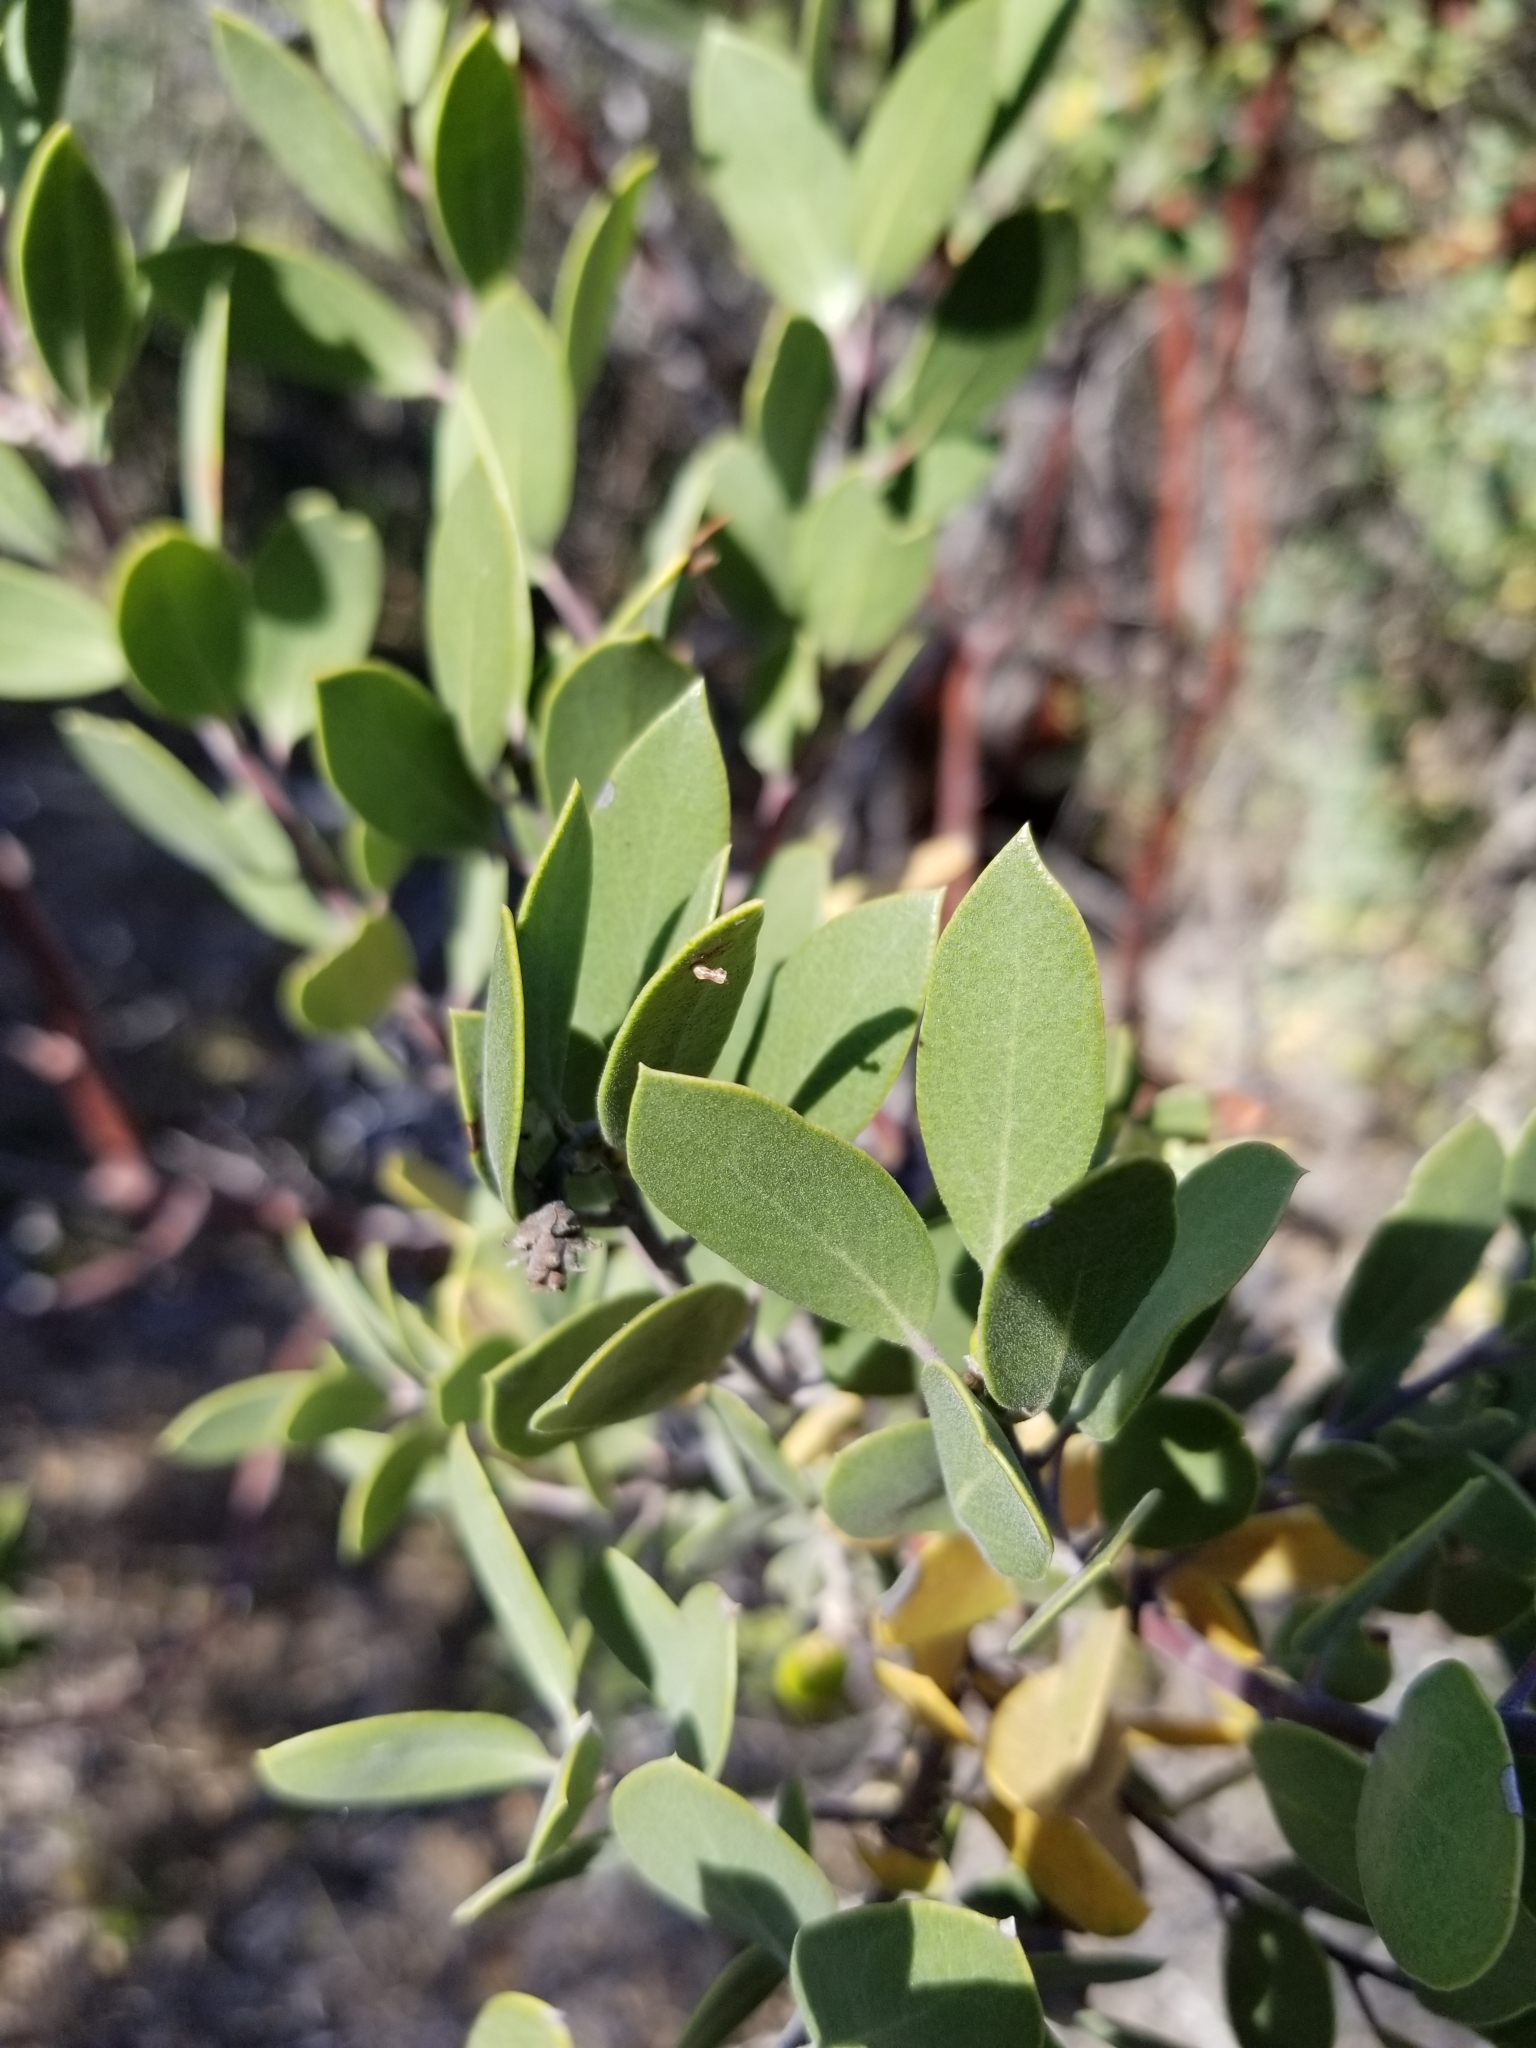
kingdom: Plantae
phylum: Tracheophyta
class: Magnoliopsida
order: Ericales
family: Ericaceae
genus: Arctostaphylos
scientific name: Arctostaphylos pungens
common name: Mexican manzanita
